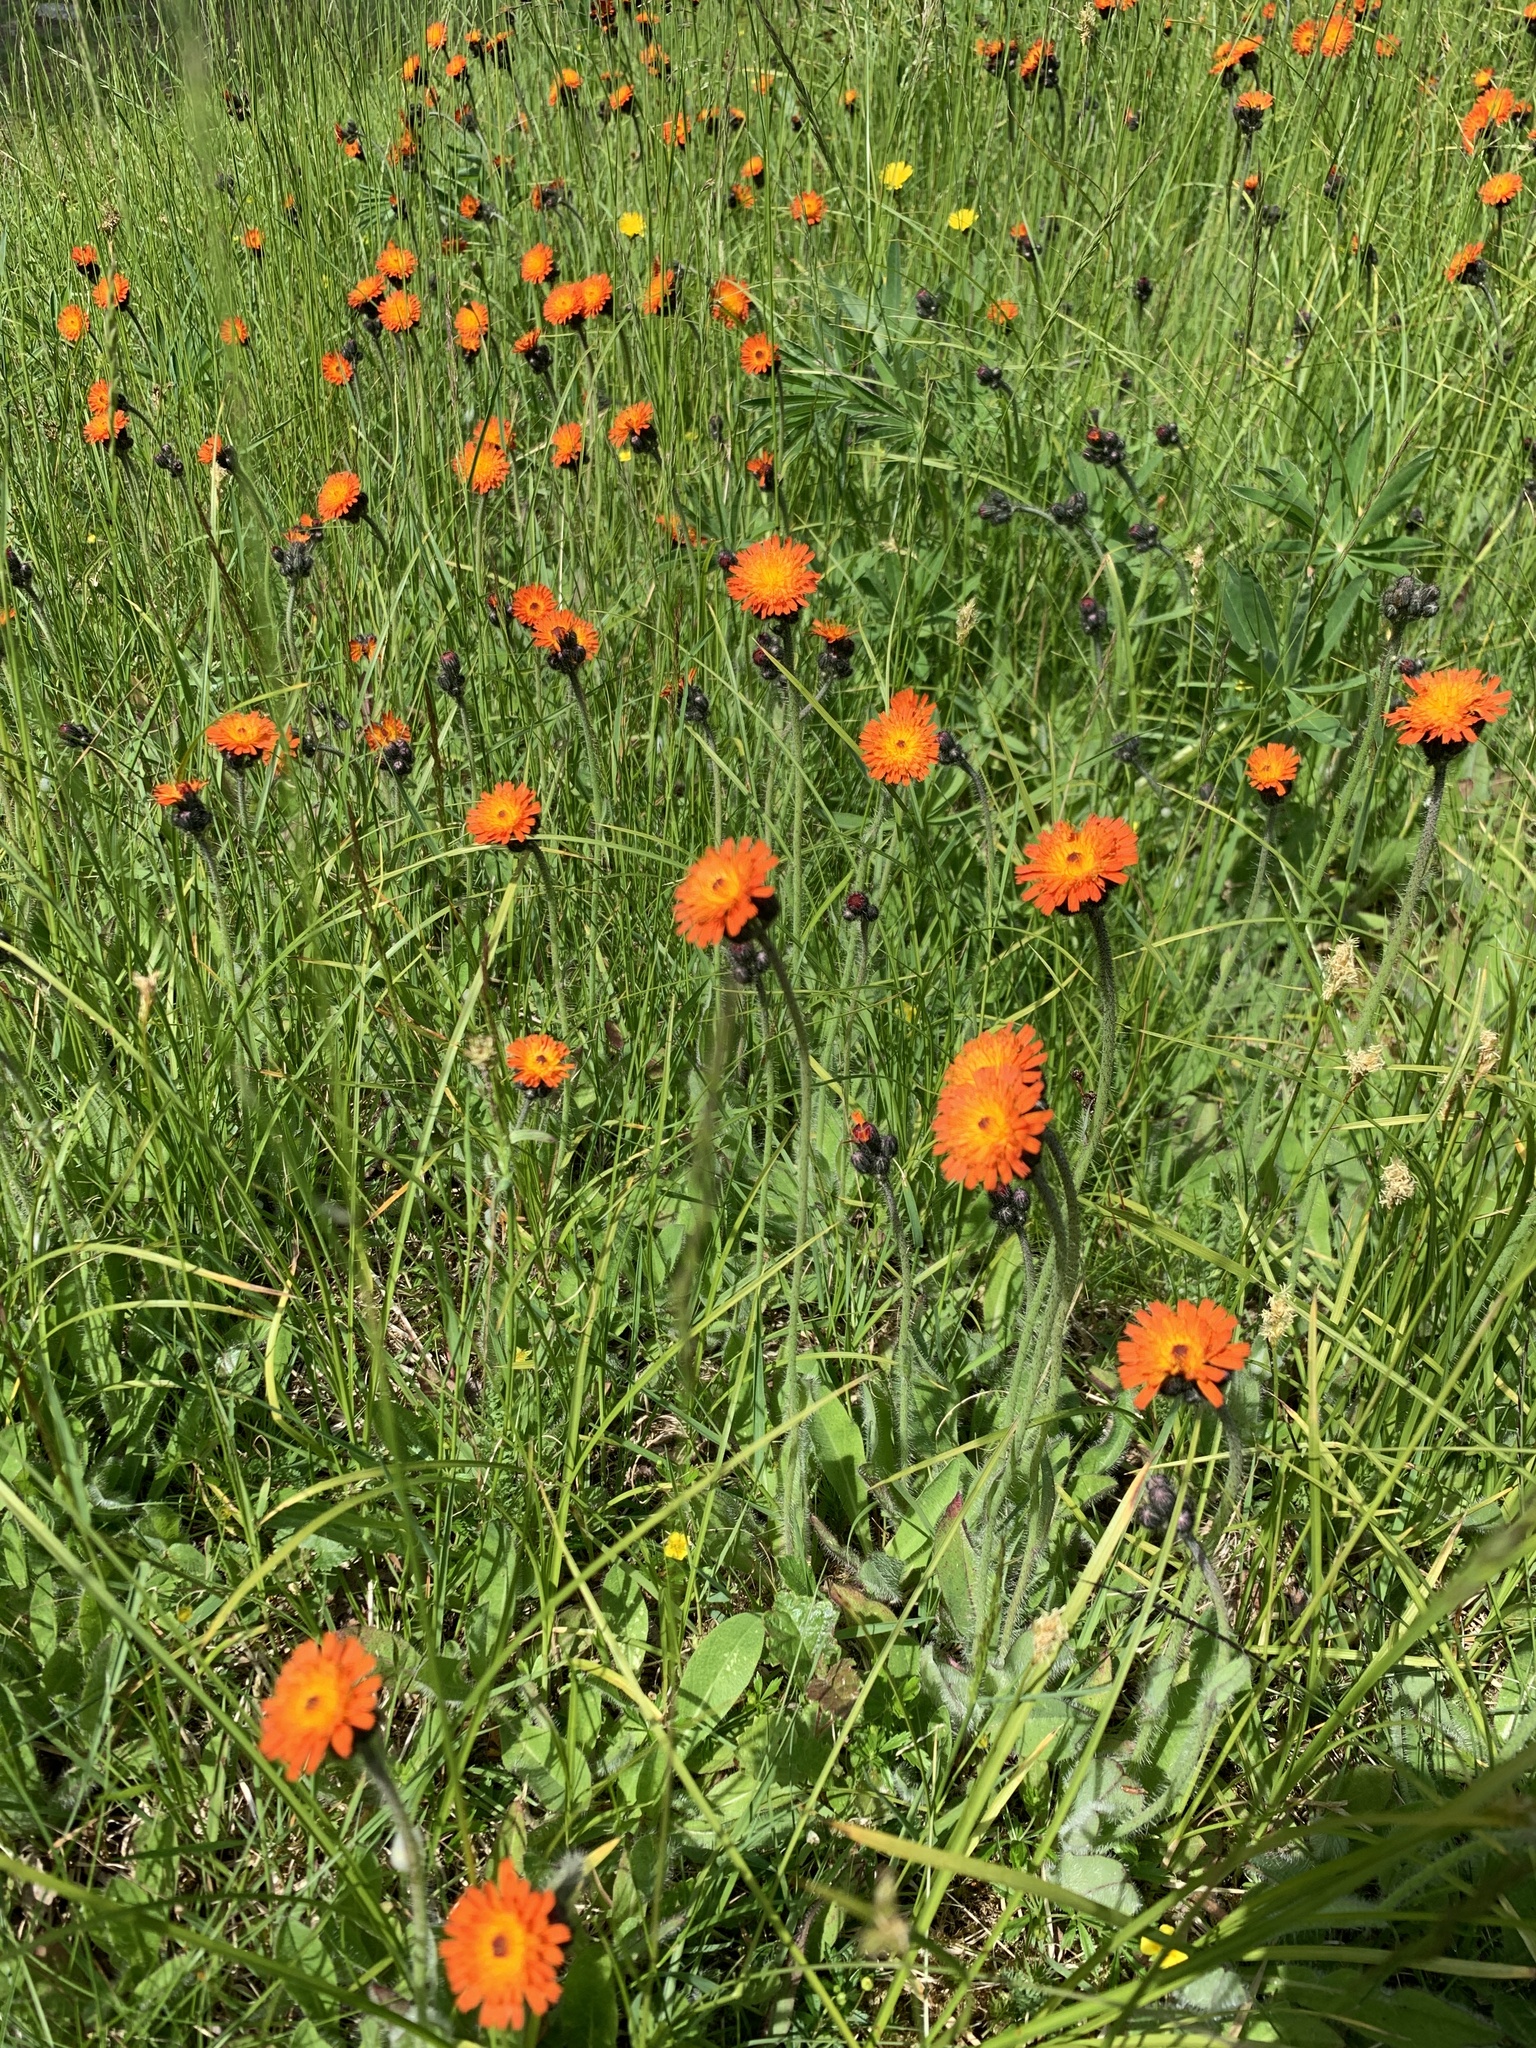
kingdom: Plantae
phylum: Tracheophyta
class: Magnoliopsida
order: Asterales
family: Asteraceae
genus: Pilosella
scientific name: Pilosella aurantiaca
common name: Fox-and-cubs
